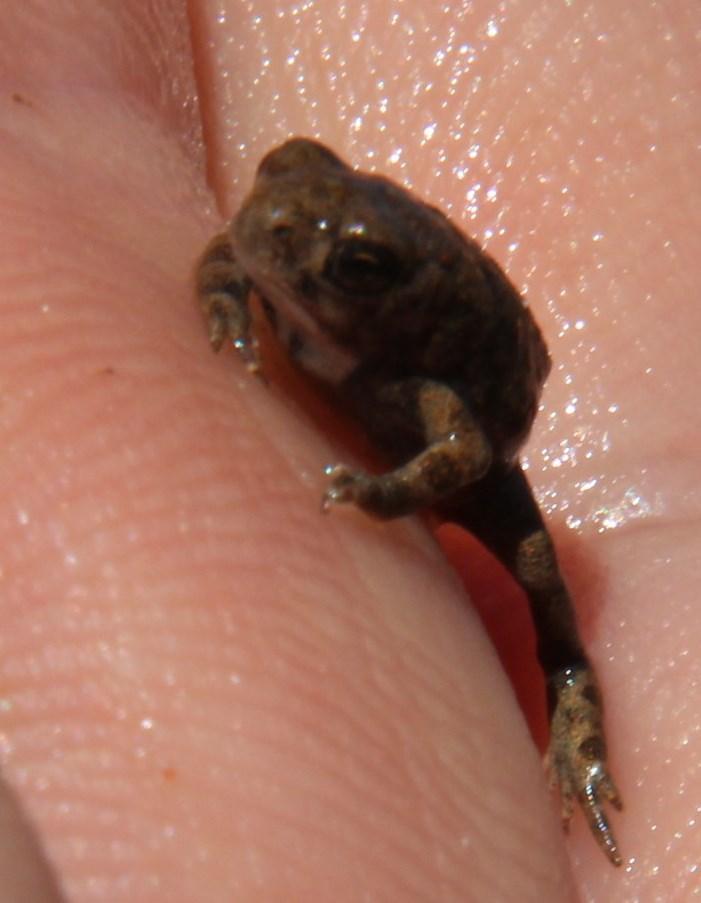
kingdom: Animalia
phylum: Chordata
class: Amphibia
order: Anura
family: Bufonidae
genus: Vandijkophrynus
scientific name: Vandijkophrynus gariepensis
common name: Gariep toad
